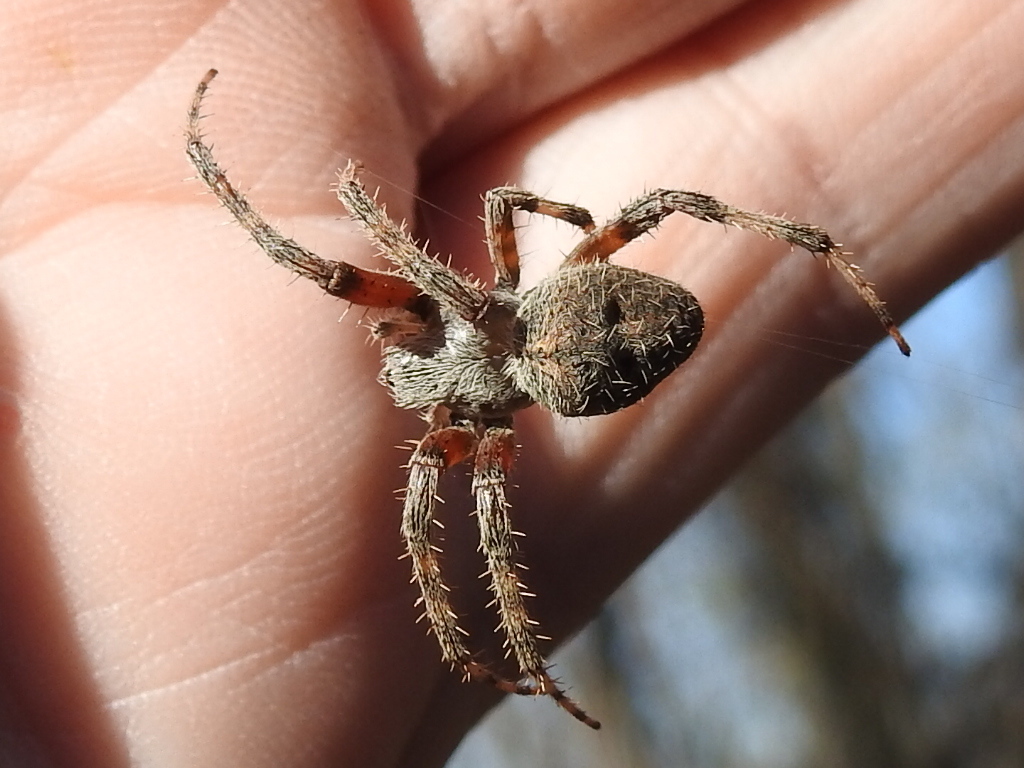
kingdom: Animalia
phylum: Arthropoda
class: Arachnida
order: Araneae
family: Araneidae
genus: Neoscona
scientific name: Neoscona crucifera
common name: Spotted orbweaver
